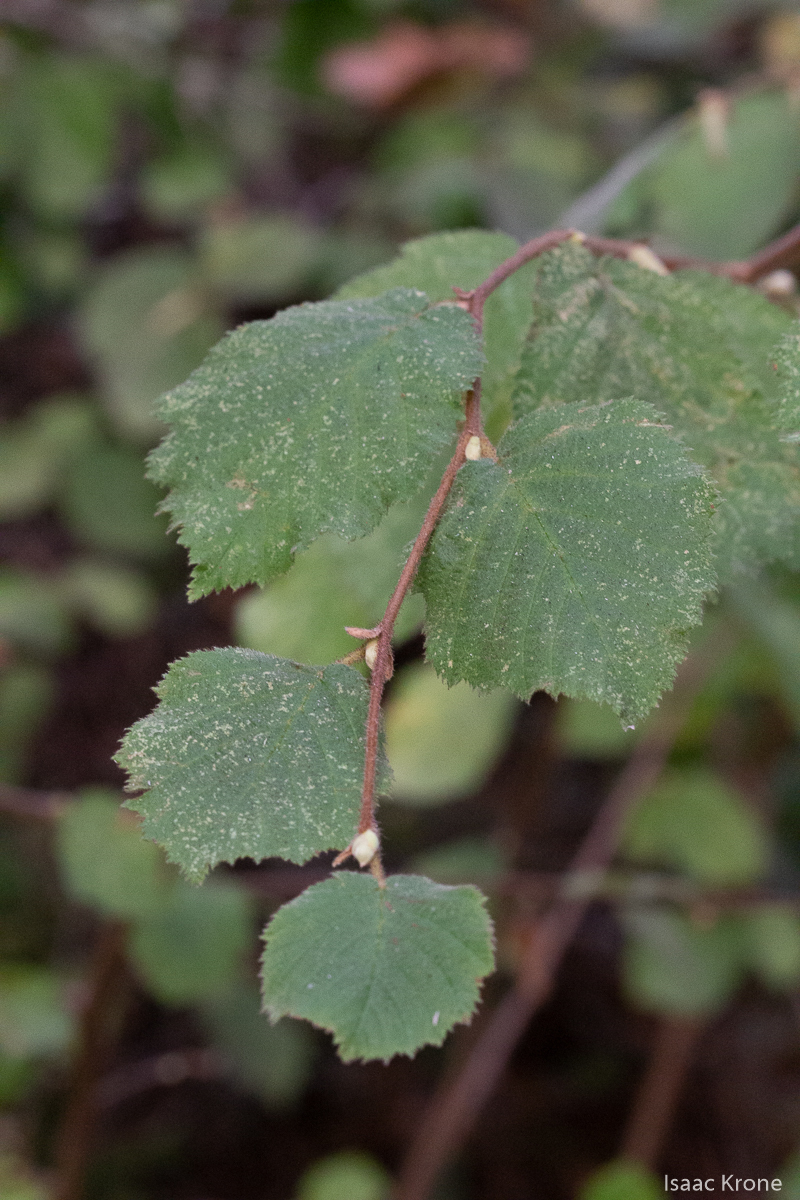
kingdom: Plantae
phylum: Tracheophyta
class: Magnoliopsida
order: Fagales
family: Betulaceae
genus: Corylus
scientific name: Corylus cornuta
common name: Beaked hazel
